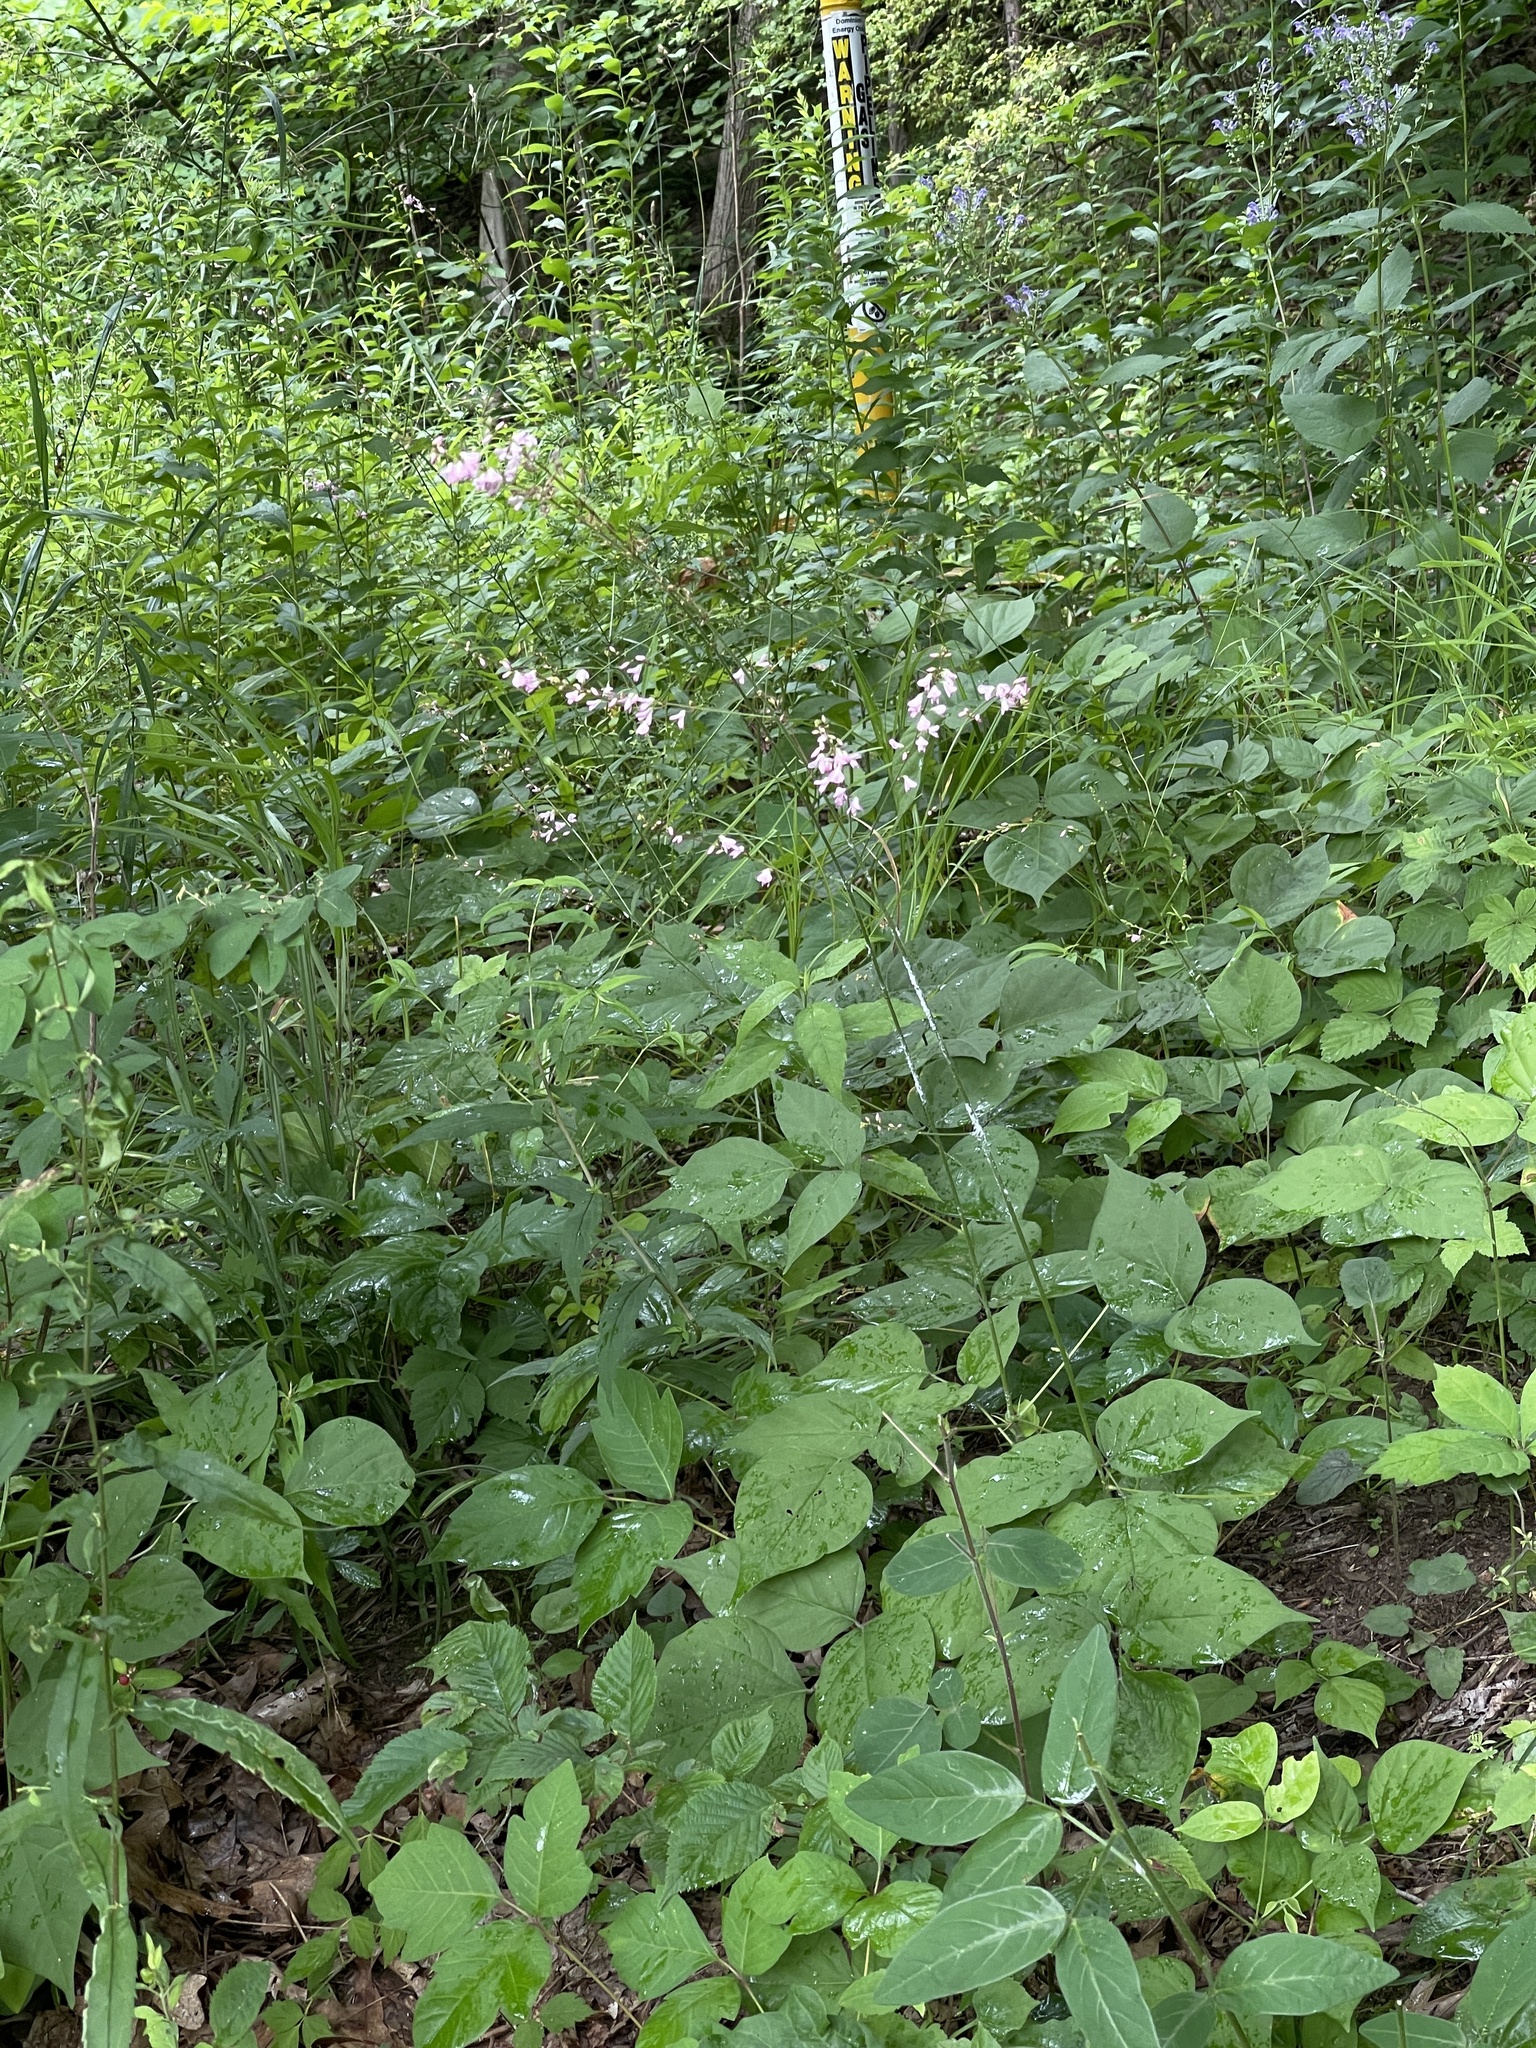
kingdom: Plantae
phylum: Tracheophyta
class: Magnoliopsida
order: Fabales
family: Fabaceae
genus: Hylodesmum
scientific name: Hylodesmum glutinosum
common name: Clustered-leaved tick-trefoil
